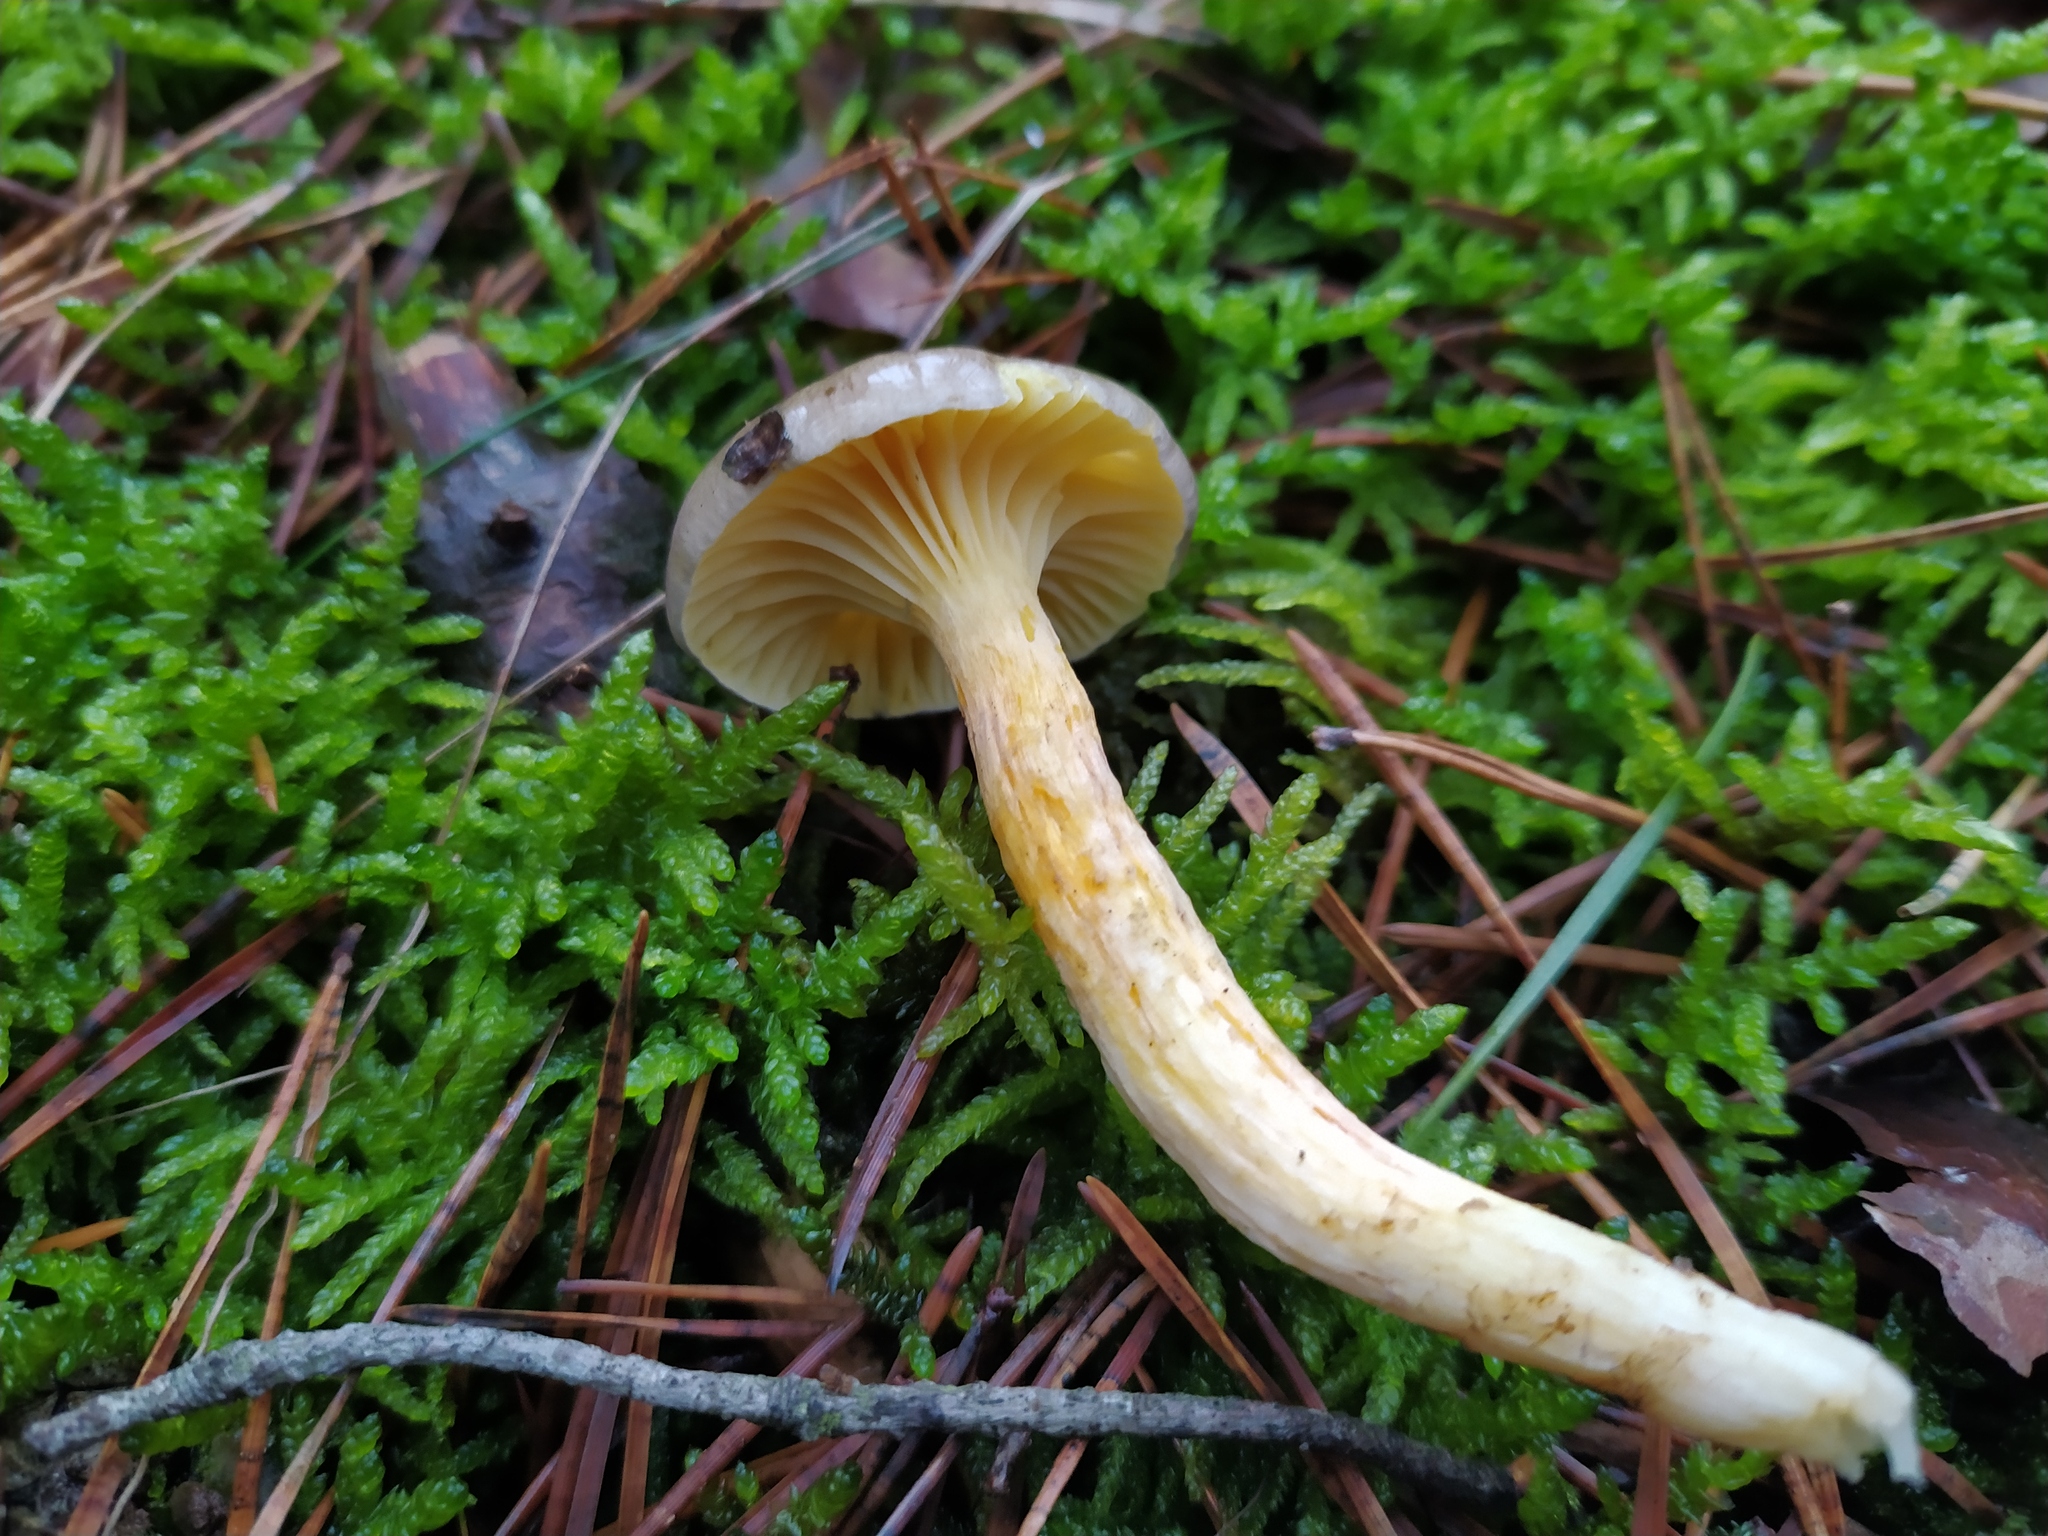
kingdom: Fungi
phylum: Basidiomycota
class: Agaricomycetes
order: Agaricales
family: Hygrophoraceae
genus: Hygrophorus
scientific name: Hygrophorus hypothejus
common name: Herald of winter
